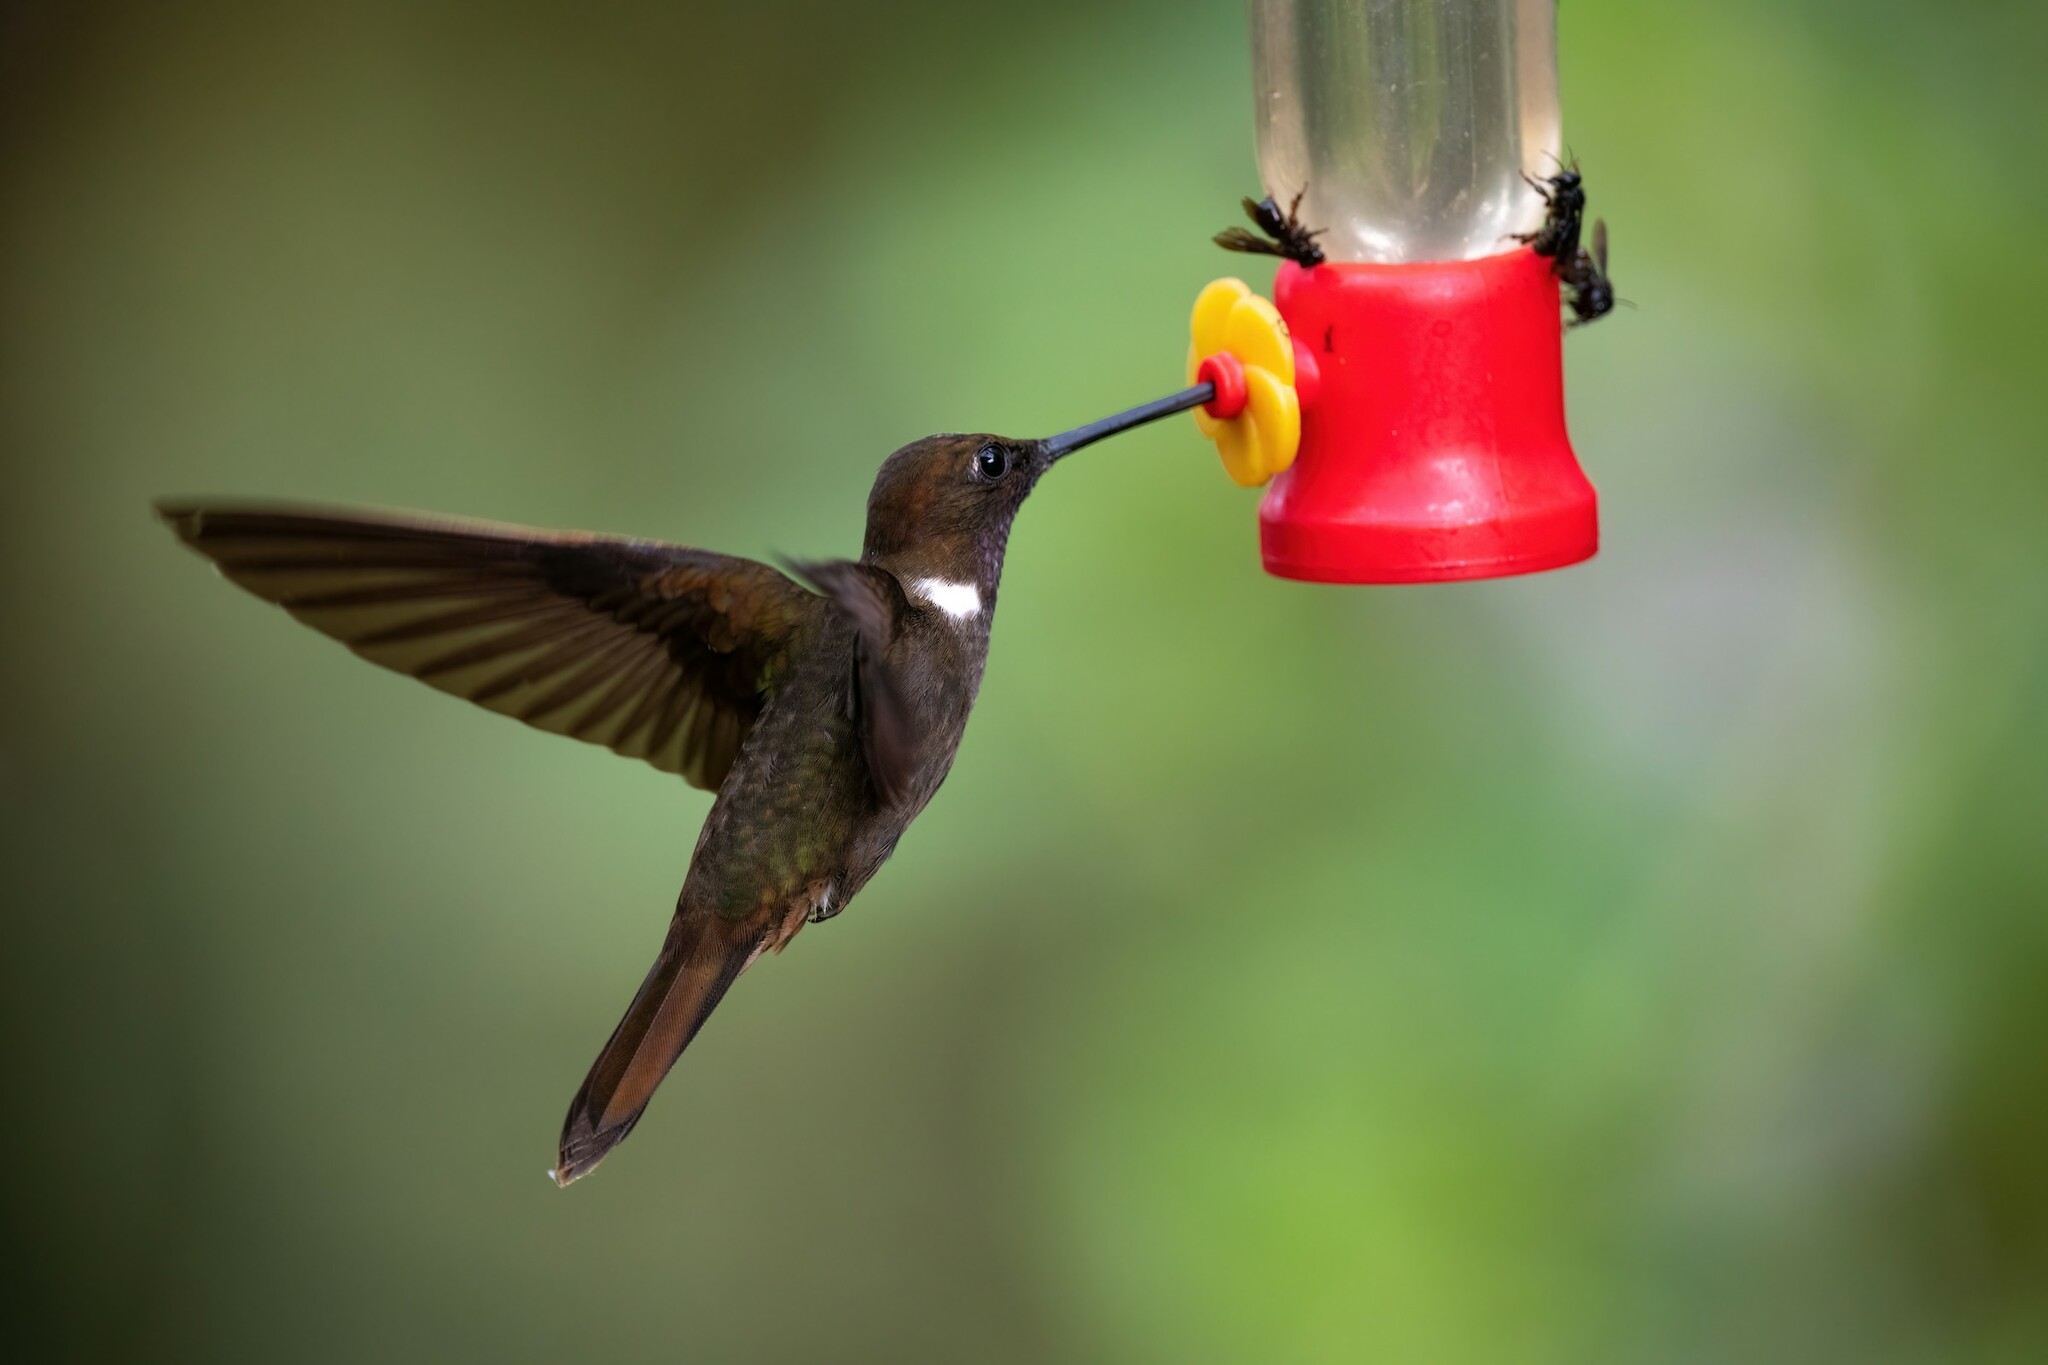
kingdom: Animalia
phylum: Chordata
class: Aves
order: Apodiformes
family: Trochilidae
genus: Coeligena
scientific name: Coeligena wilsoni
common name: Brown inca
